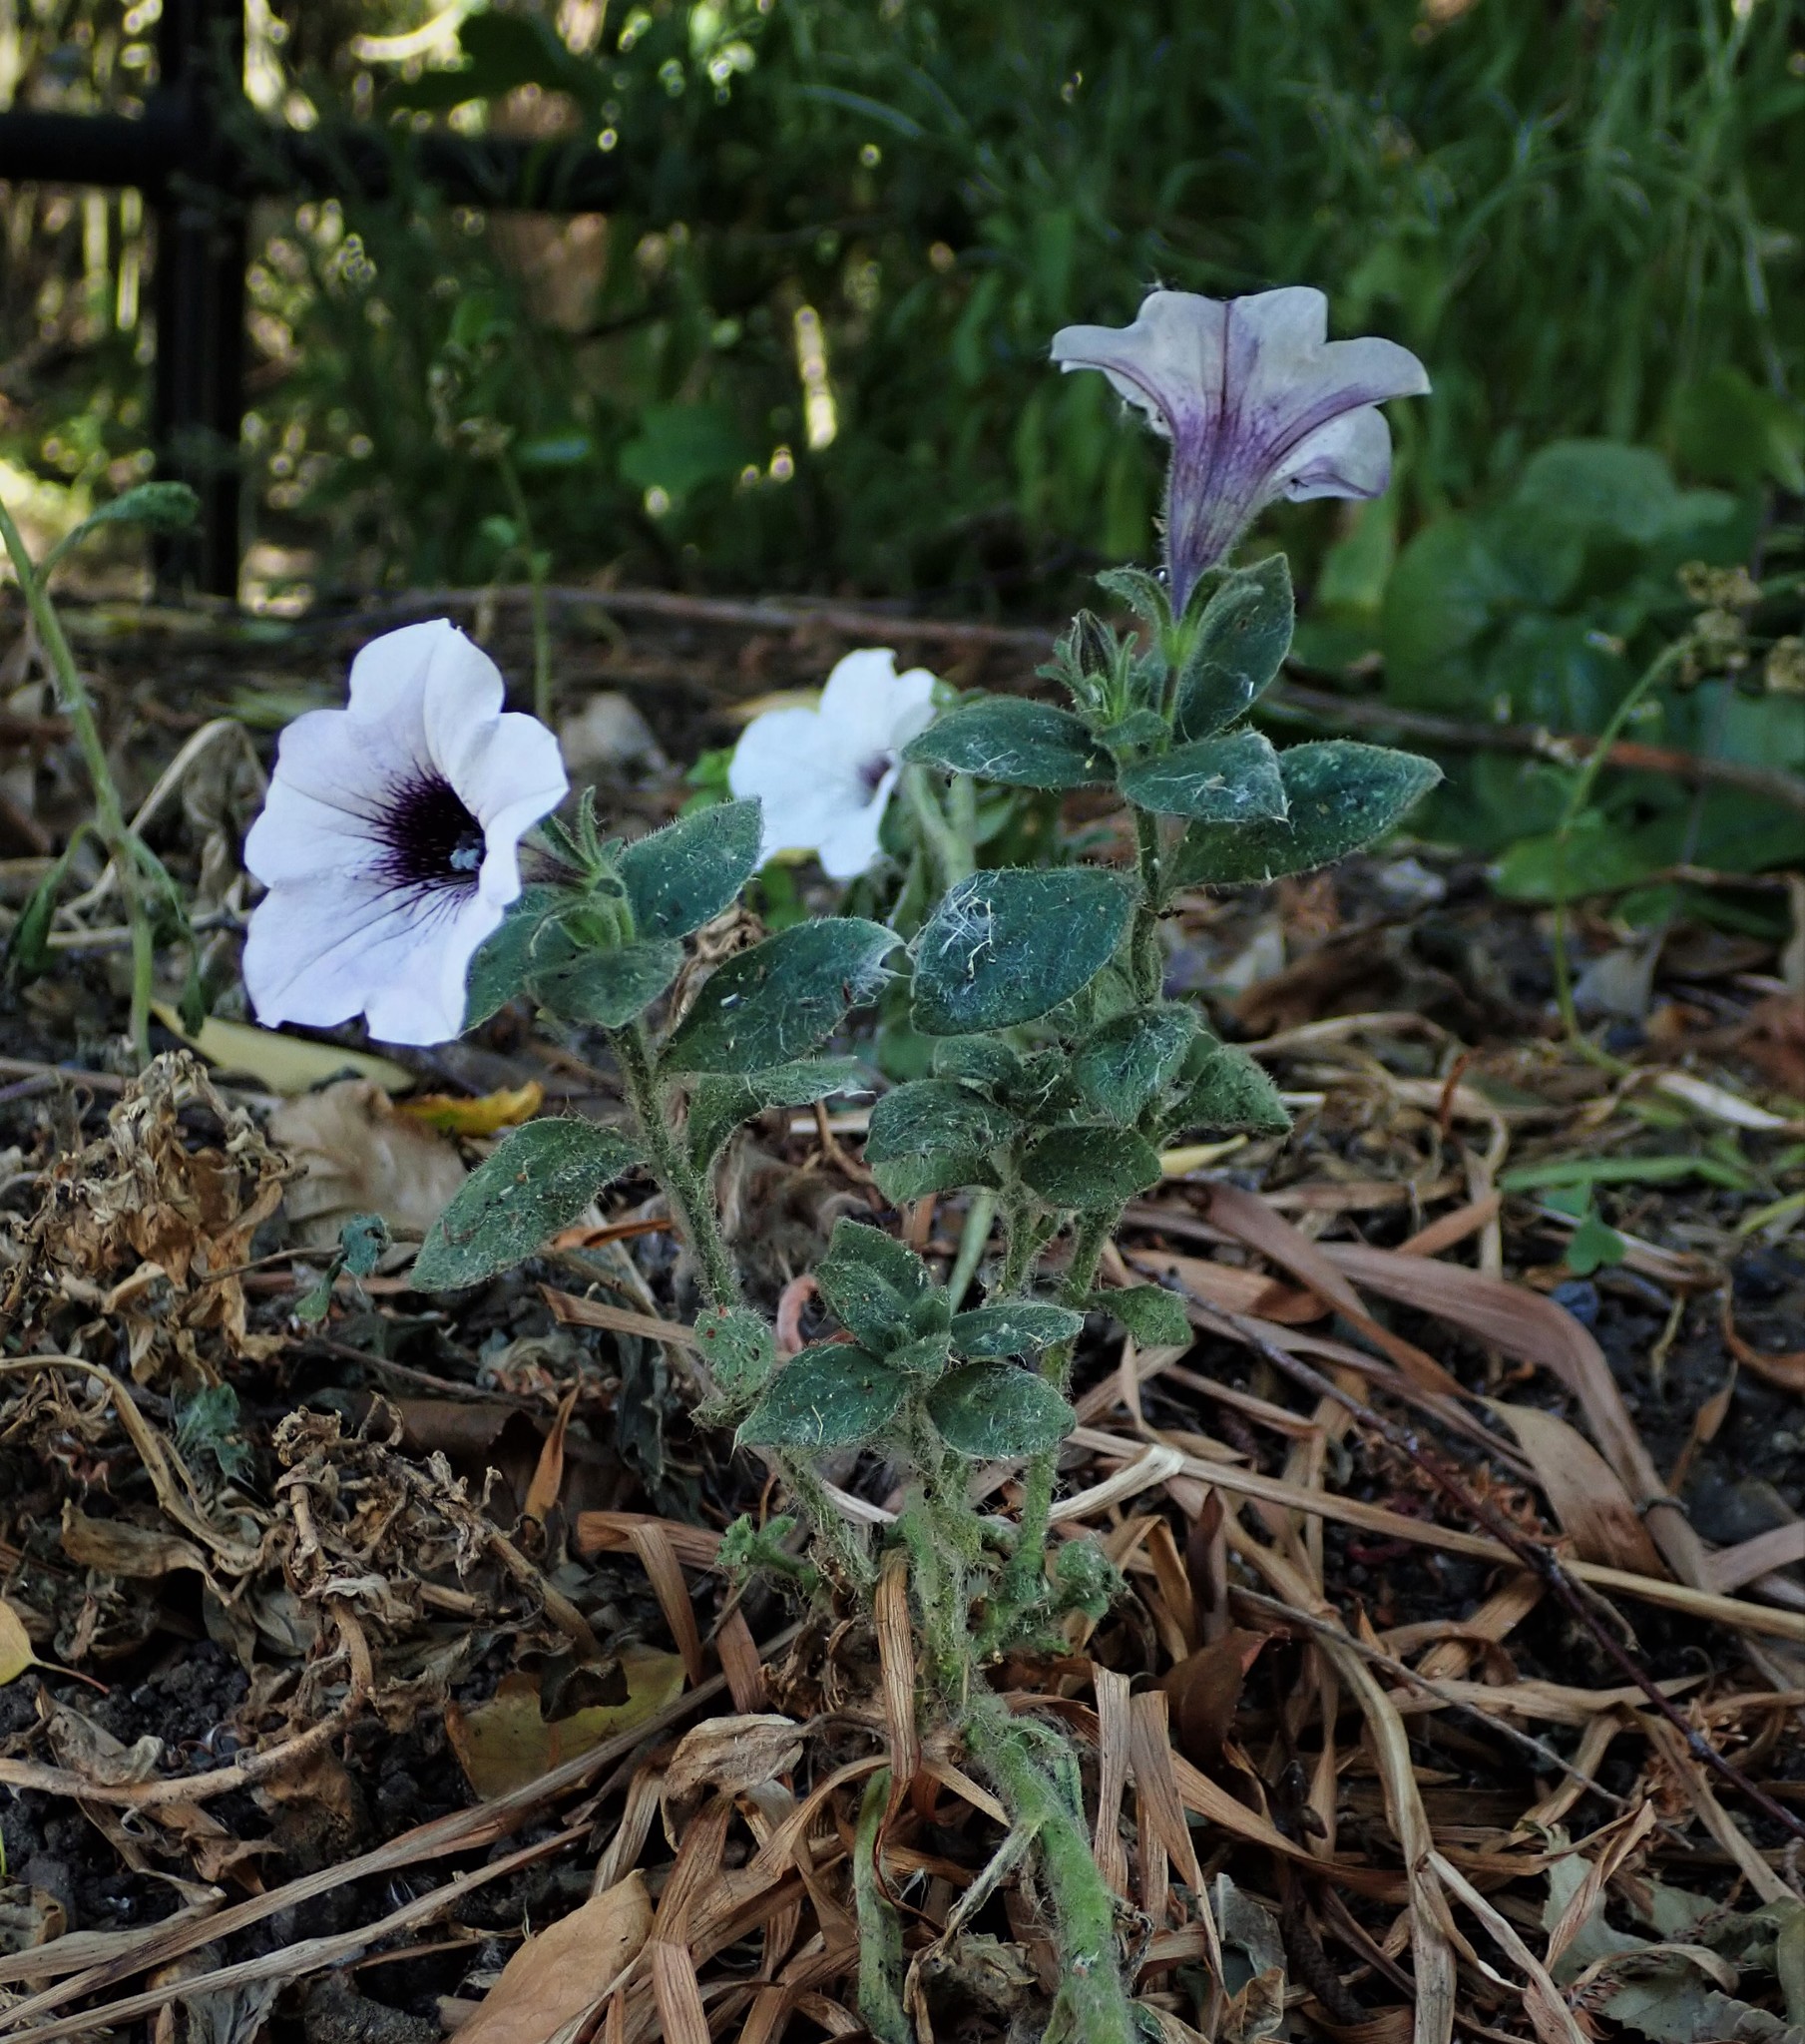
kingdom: Plantae
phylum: Tracheophyta
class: Magnoliopsida
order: Solanales
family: Solanaceae
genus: Petunia
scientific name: Petunia atkinsiana
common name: Petunia
